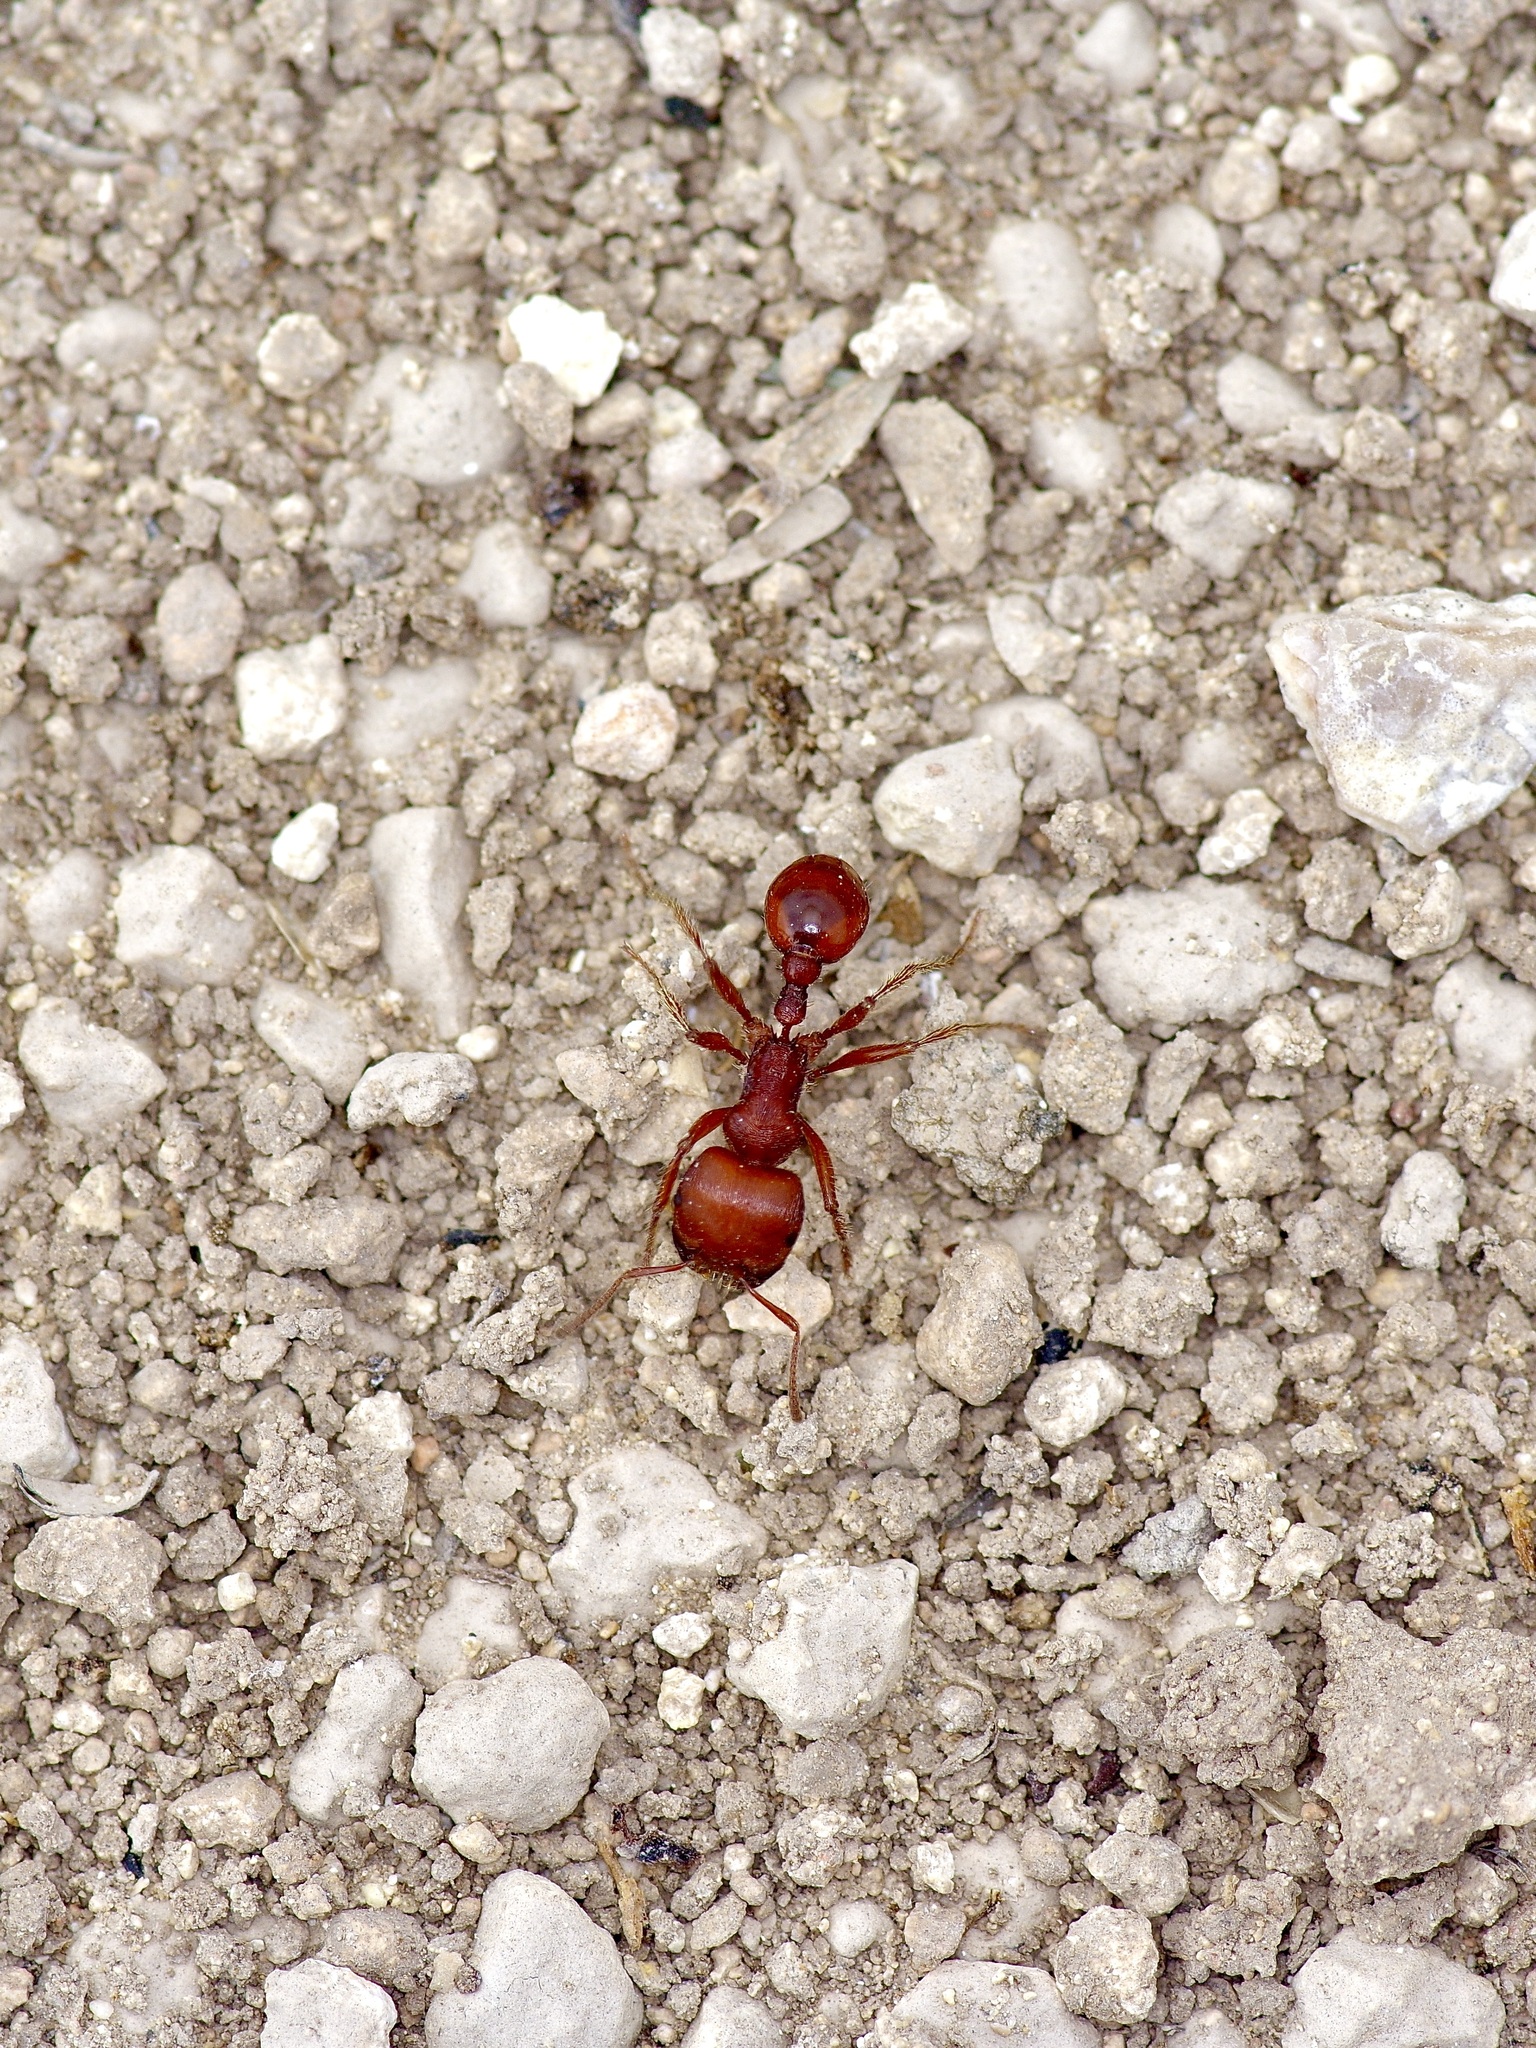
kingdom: Animalia
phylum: Arthropoda
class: Insecta
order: Hymenoptera
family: Formicidae
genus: Pogonomyrmex
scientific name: Pogonomyrmex barbatus
